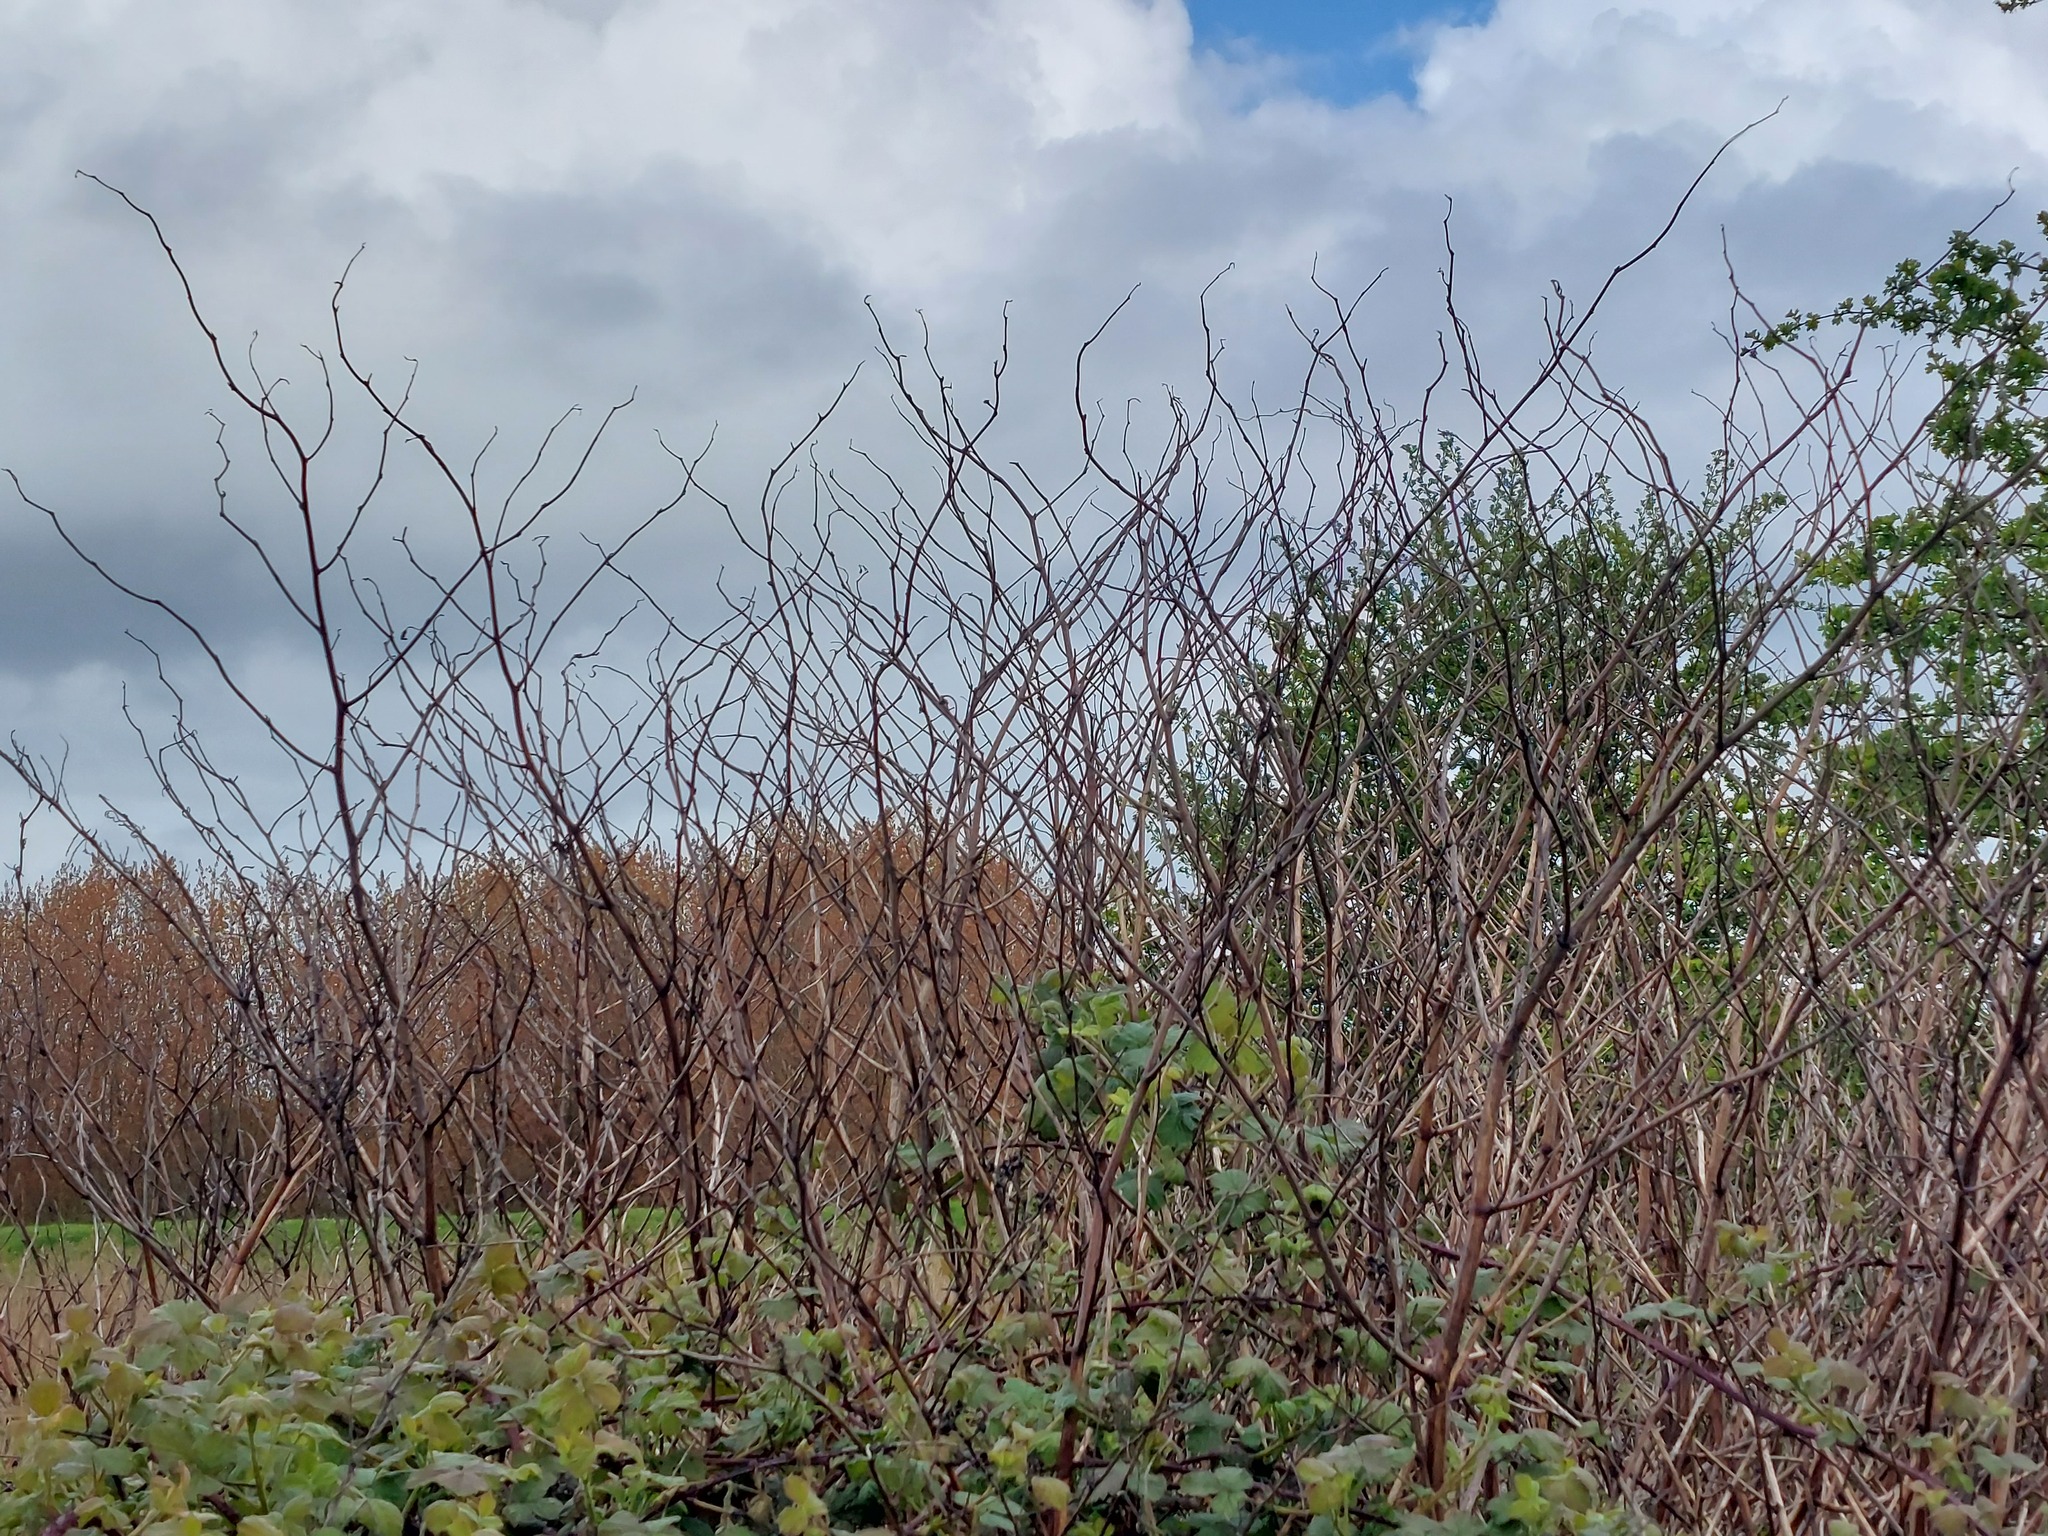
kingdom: Plantae
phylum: Tracheophyta
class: Magnoliopsida
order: Caryophyllales
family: Polygonaceae
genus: Reynoutria
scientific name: Reynoutria japonica
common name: Japanese knotweed
